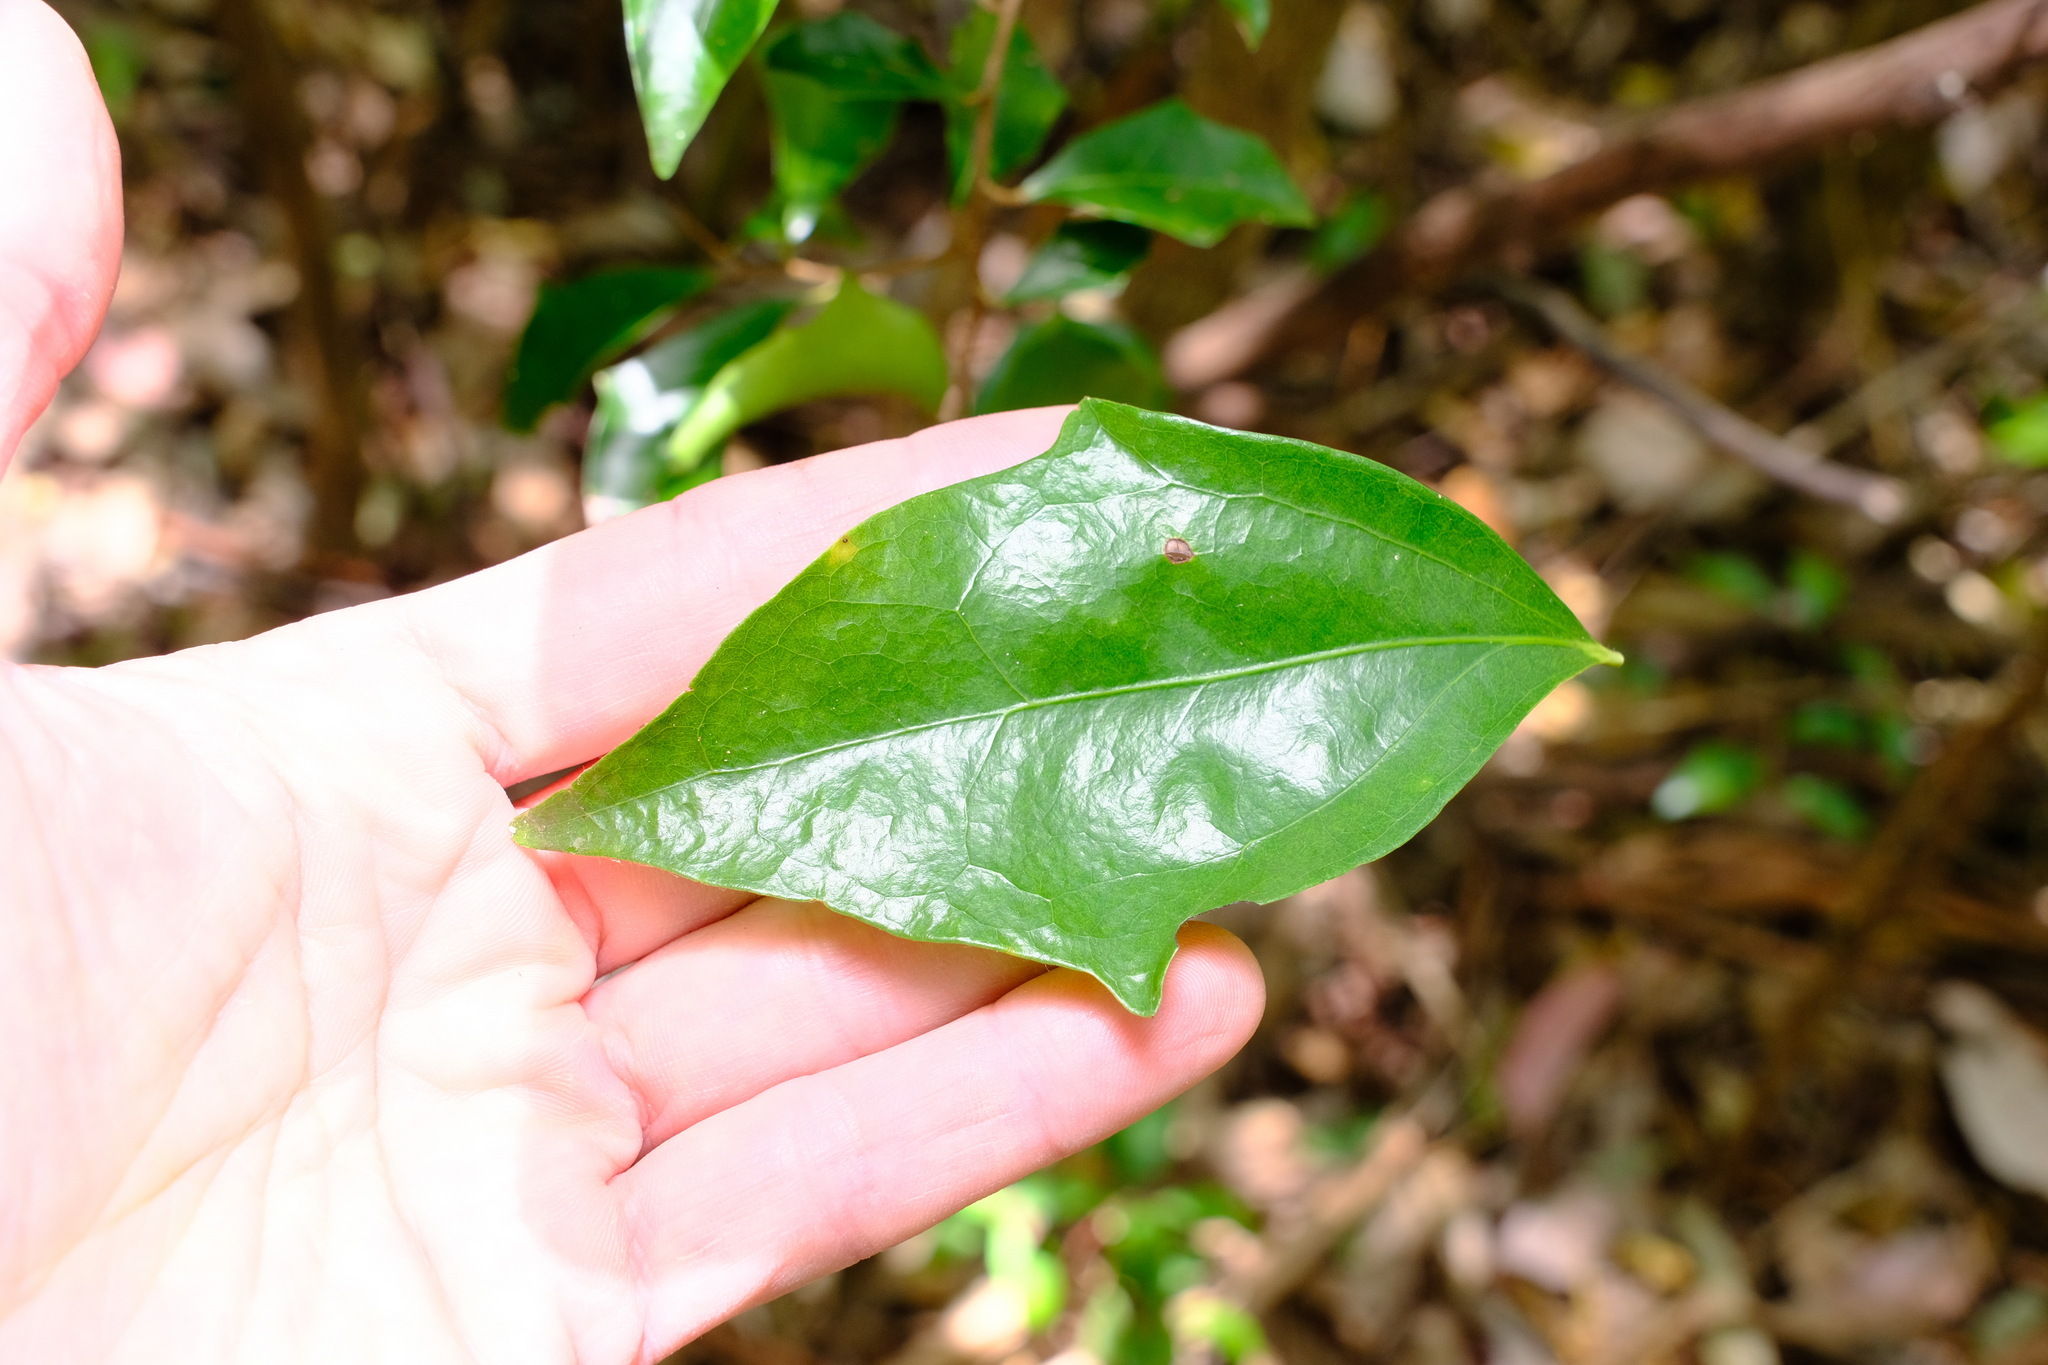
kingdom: Plantae
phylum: Tracheophyta
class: Magnoliopsida
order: Malpighiales
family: Salicaceae
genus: Scolopia
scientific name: Scolopia braunii
